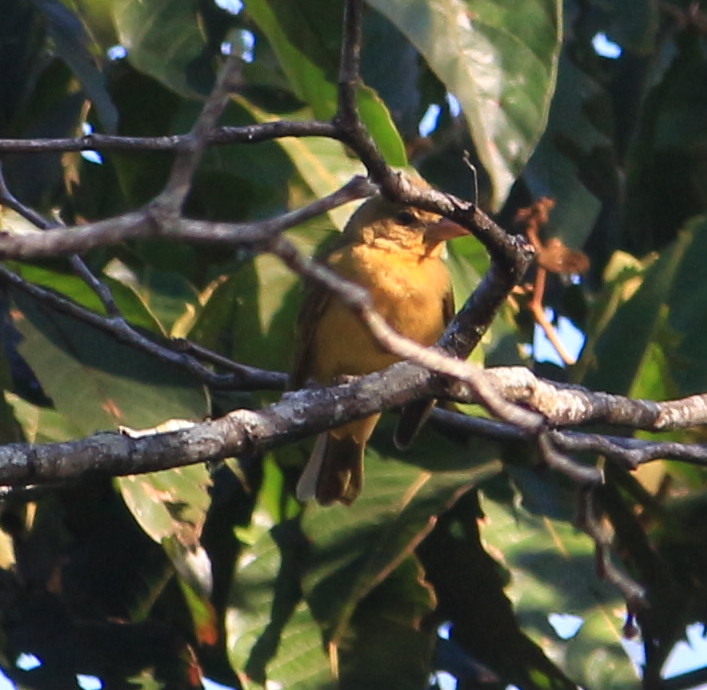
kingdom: Animalia
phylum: Chordata
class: Aves
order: Passeriformes
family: Cardinalidae
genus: Piranga
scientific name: Piranga rubra
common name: Summer tanager
